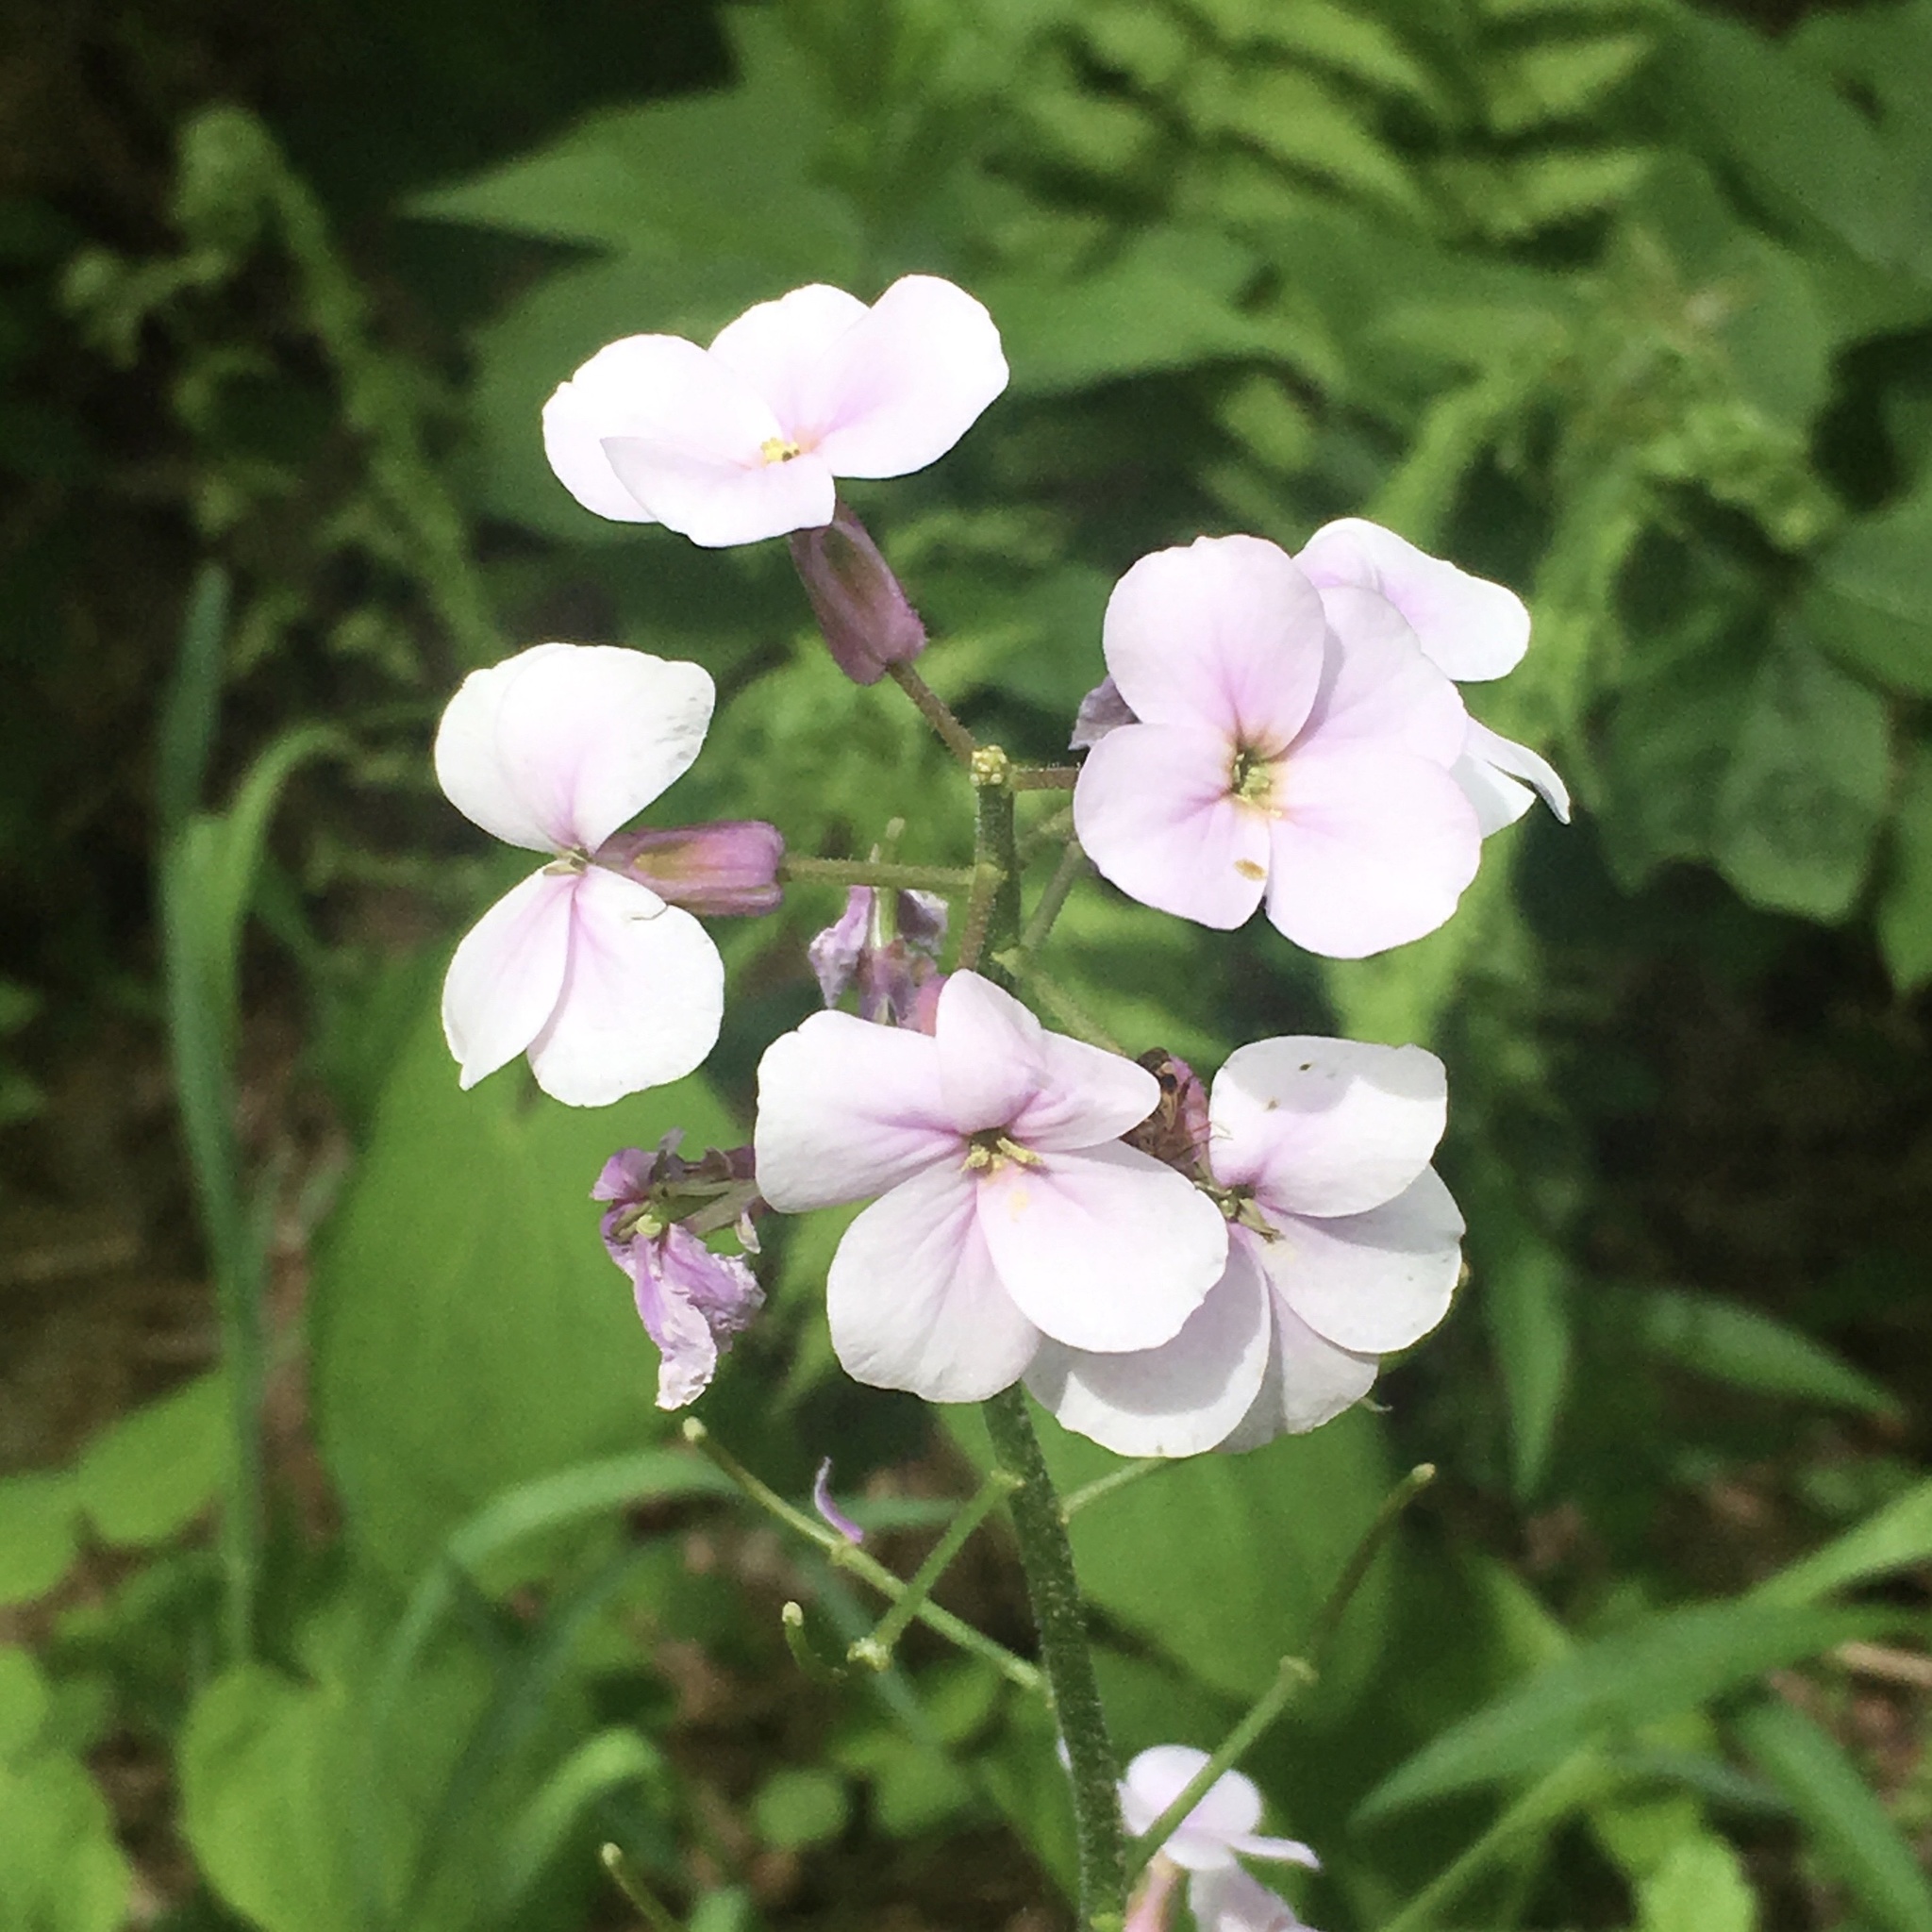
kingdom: Plantae
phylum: Tracheophyta
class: Magnoliopsida
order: Brassicales
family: Brassicaceae
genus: Hesperis
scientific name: Hesperis matronalis
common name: Dame's-violet
